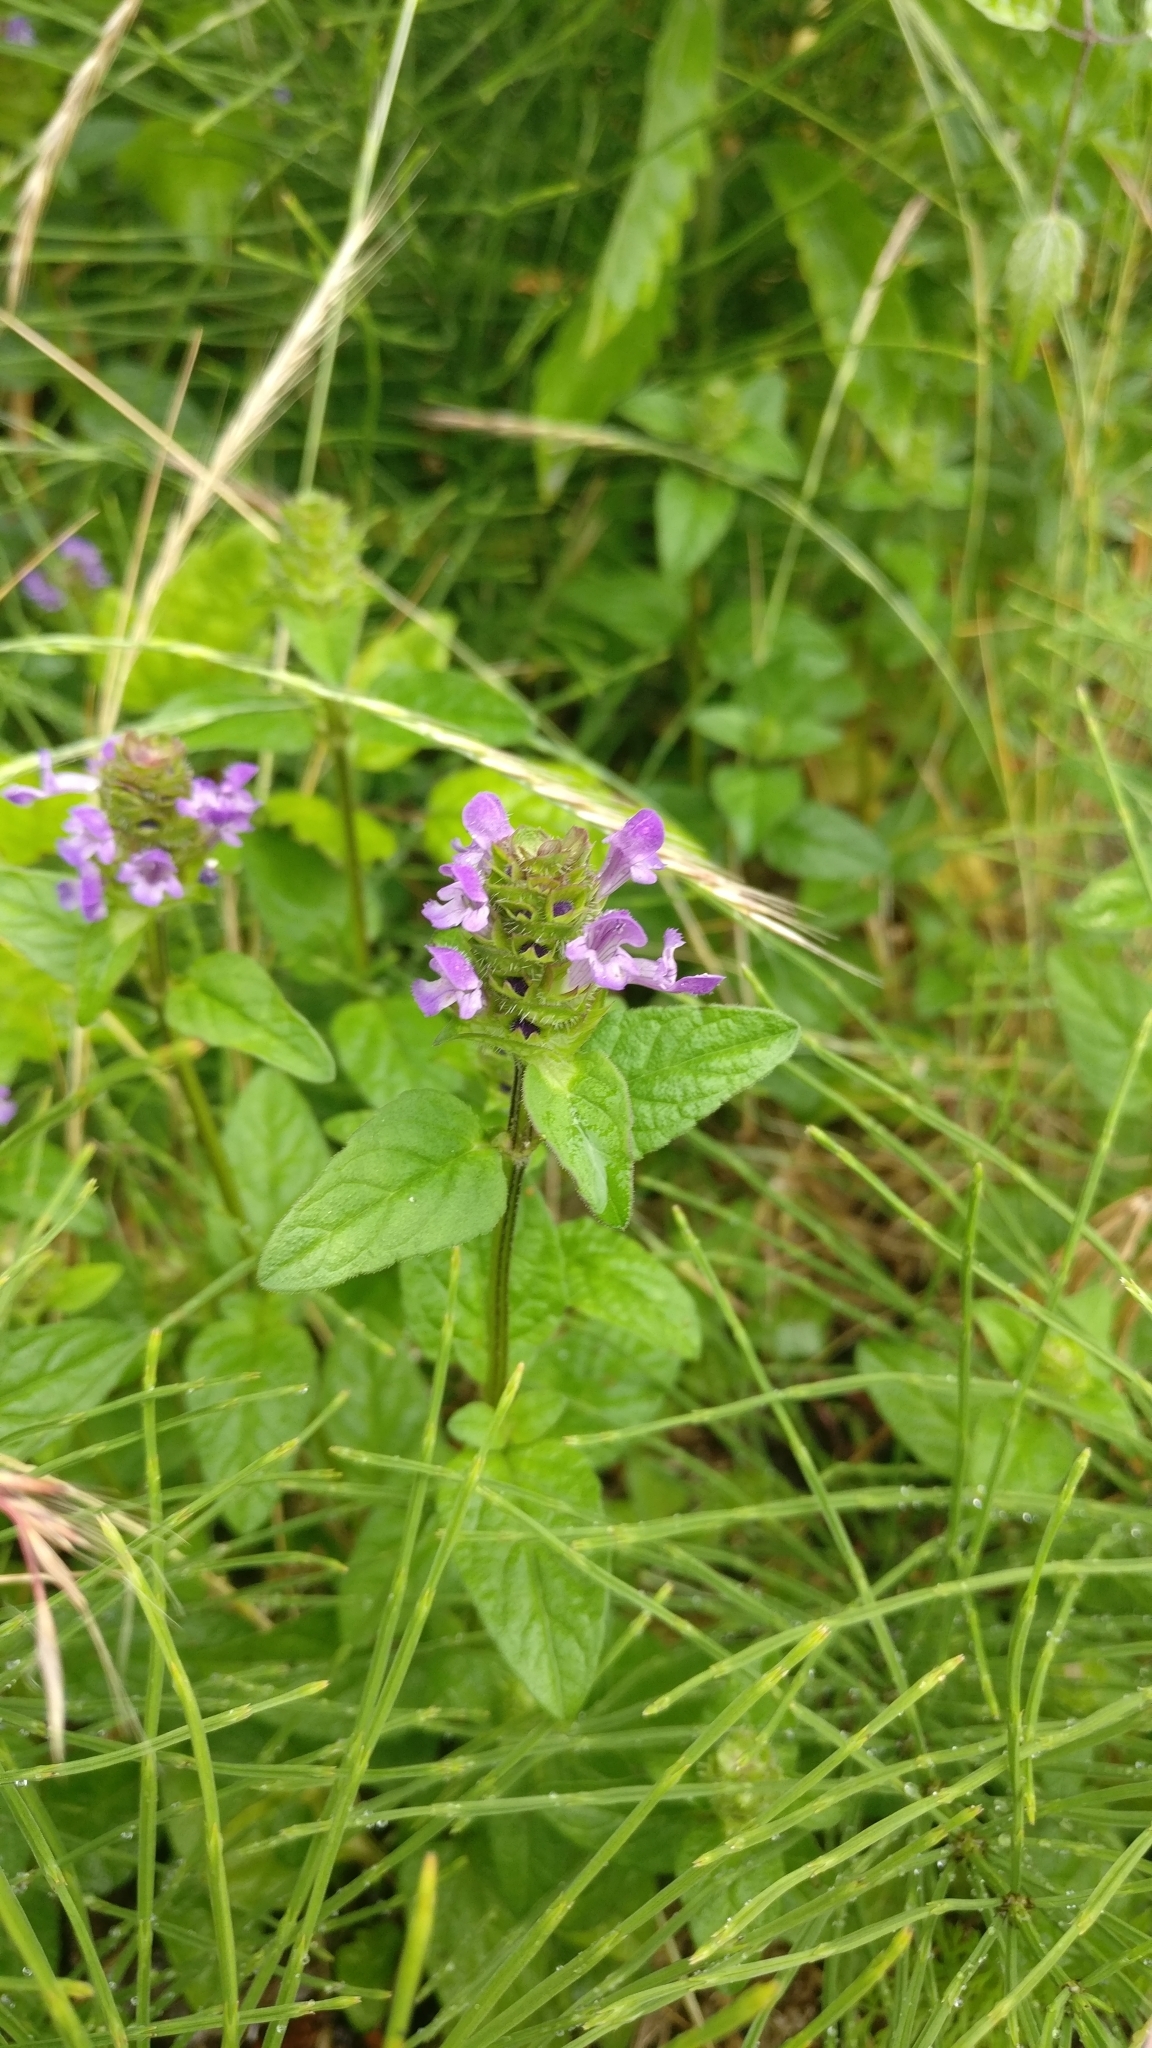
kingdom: Plantae
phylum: Tracheophyta
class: Magnoliopsida
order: Lamiales
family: Lamiaceae
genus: Prunella
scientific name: Prunella vulgaris
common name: Heal-all
